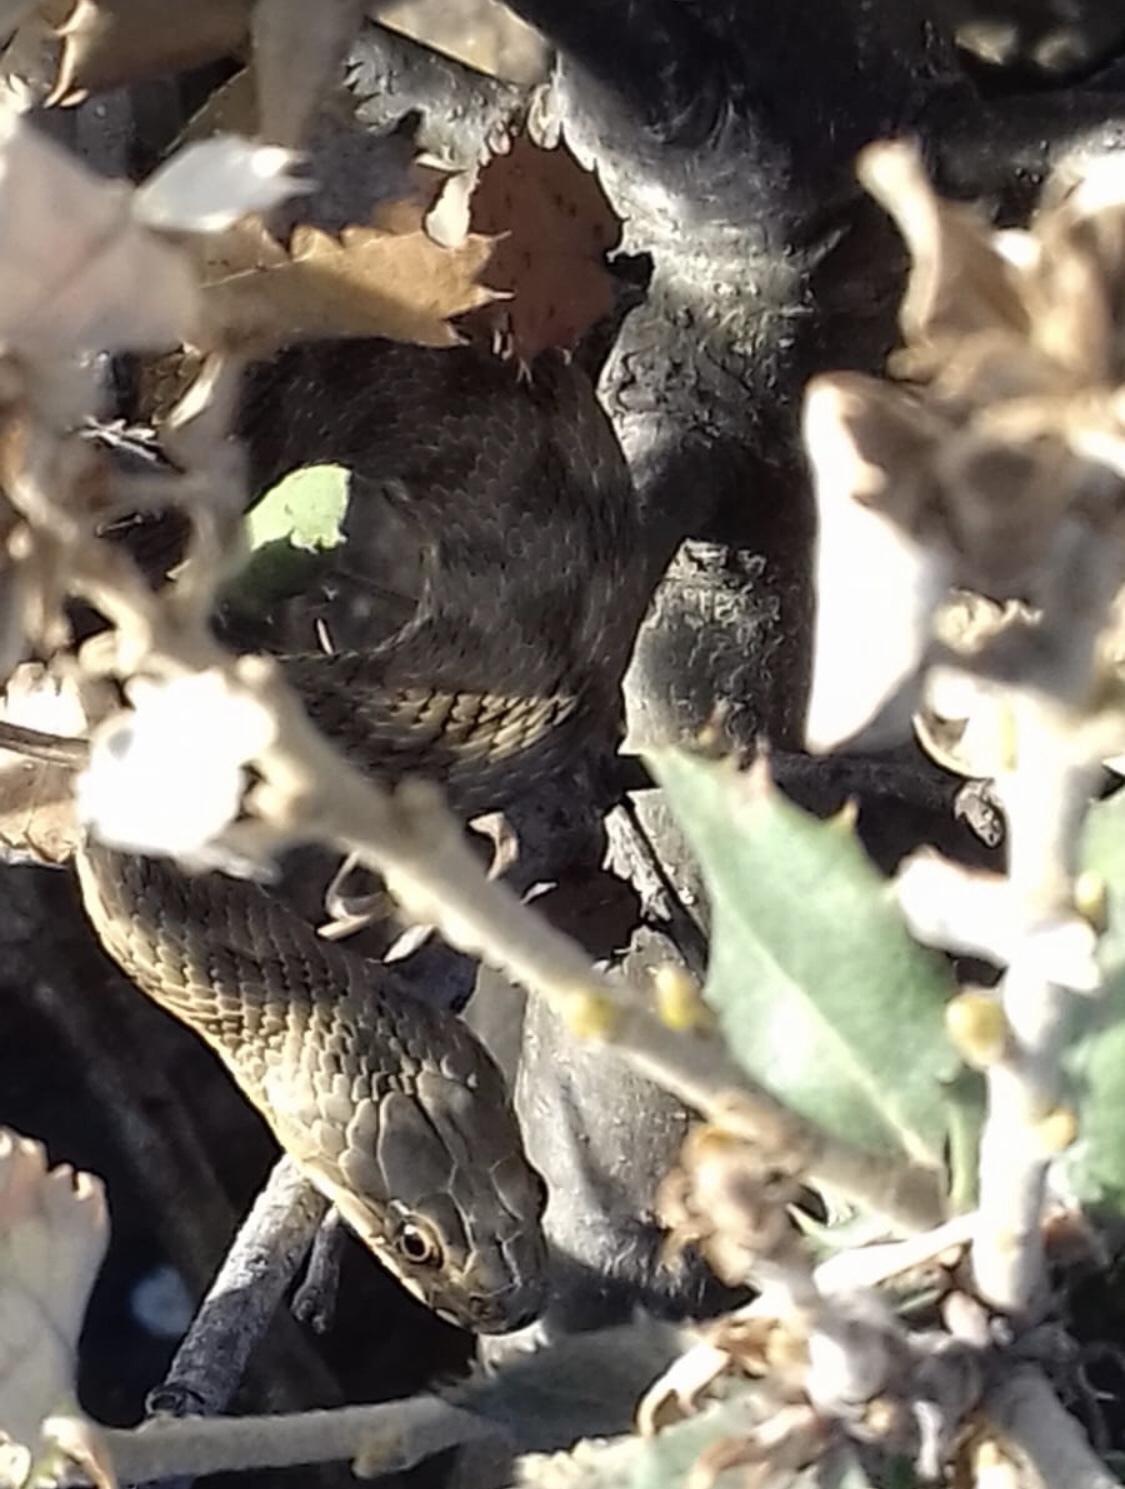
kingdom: Animalia
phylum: Chordata
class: Squamata
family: Colubridae
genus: Natrix
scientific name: Natrix maura
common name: Viperine water snake
